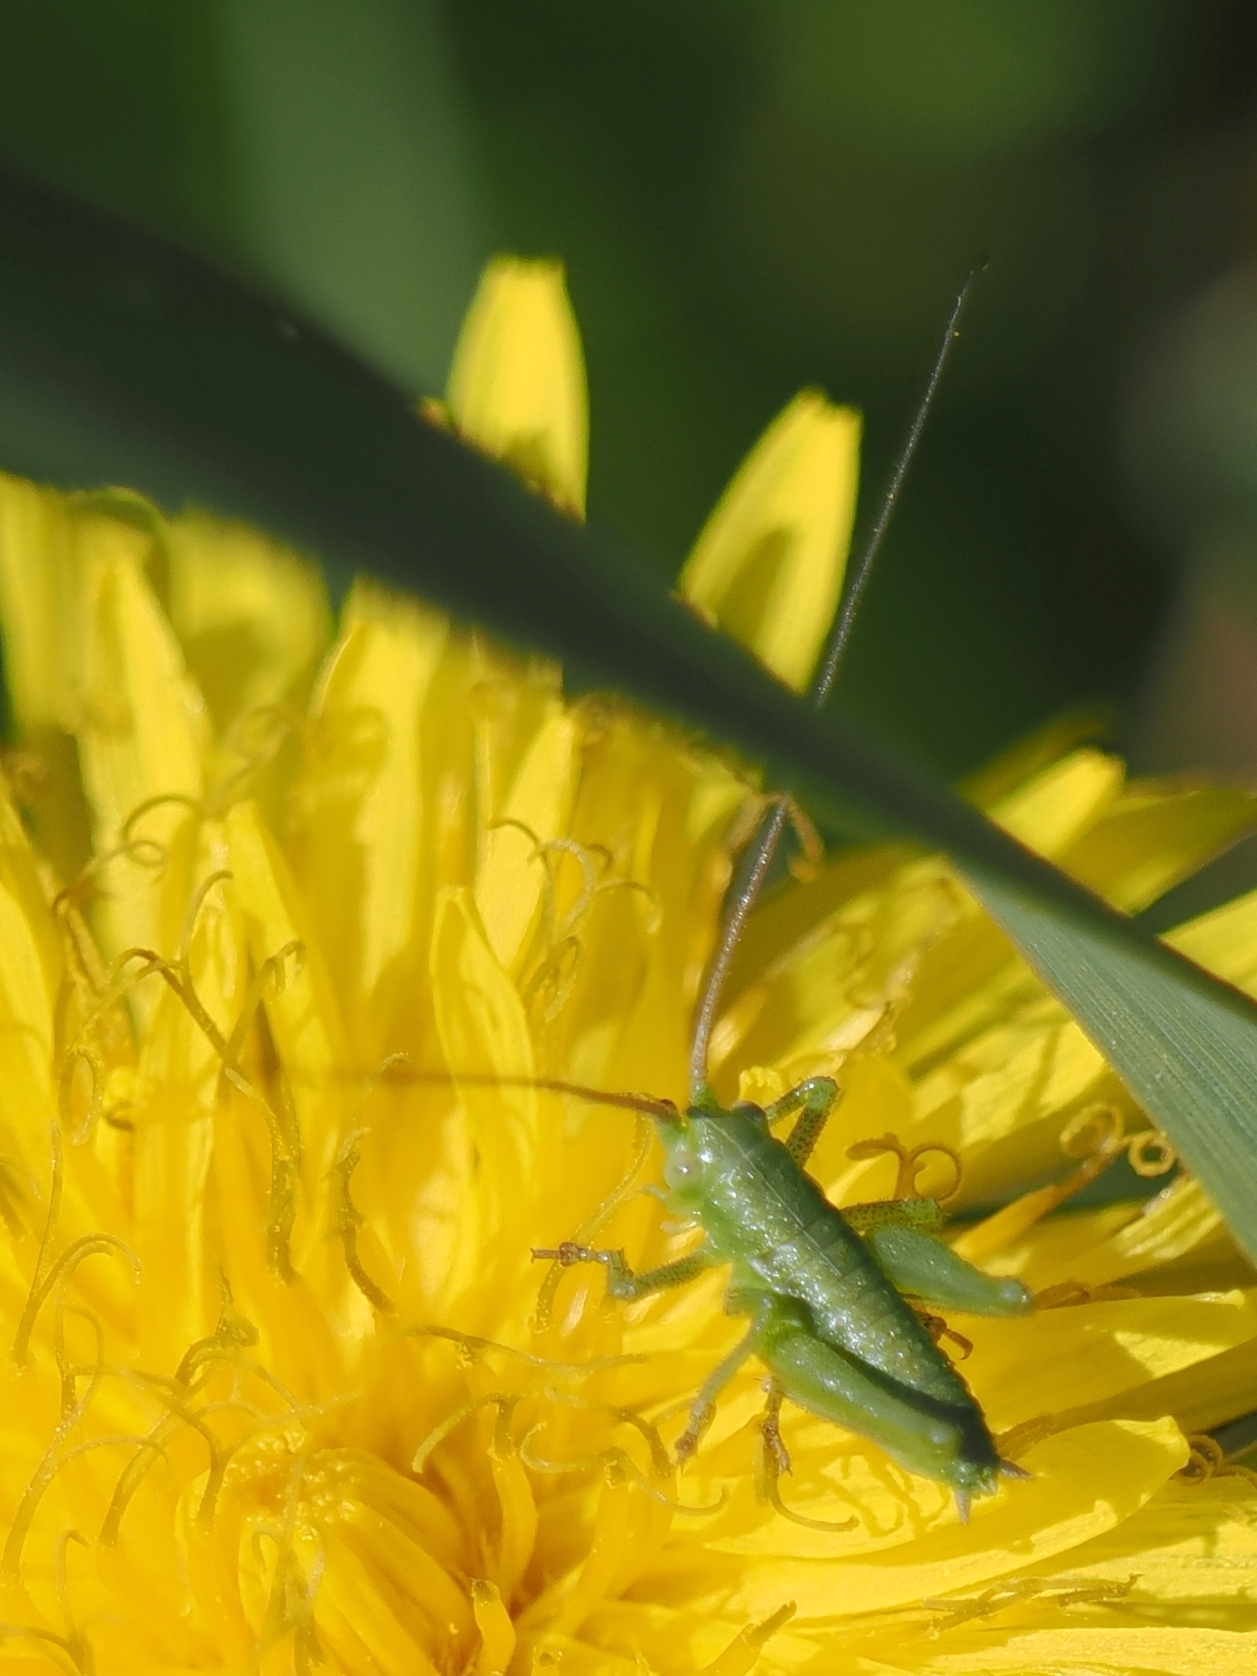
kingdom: Animalia
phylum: Arthropoda
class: Insecta
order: Orthoptera
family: Tettigoniidae
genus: Tettigonia
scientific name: Tettigonia viridissima
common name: Great green bush-cricket
